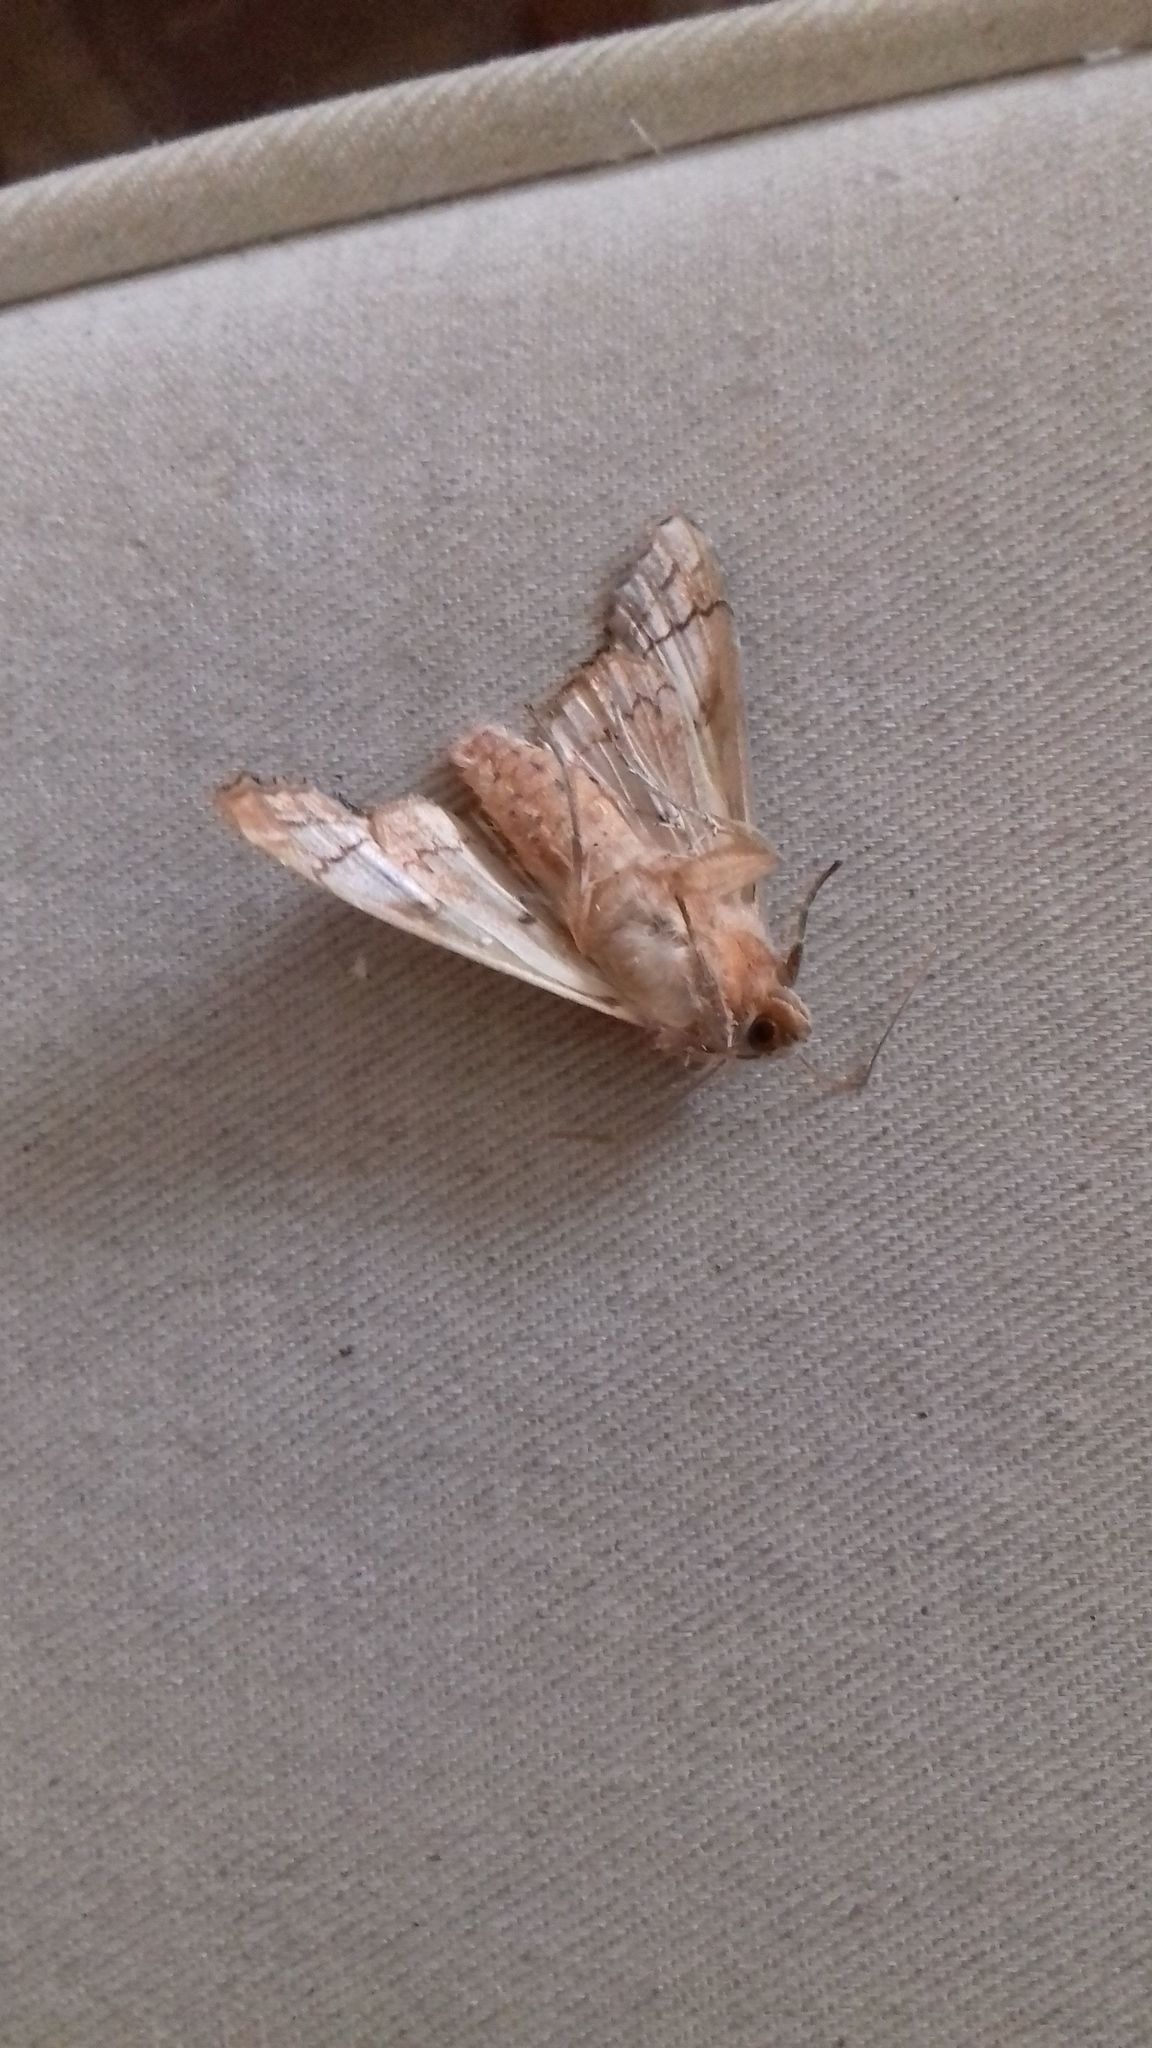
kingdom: Animalia
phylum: Arthropoda
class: Insecta
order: Lepidoptera
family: Noctuidae
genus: Phlogophora
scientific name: Phlogophora meticulosa
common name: Angle shades
